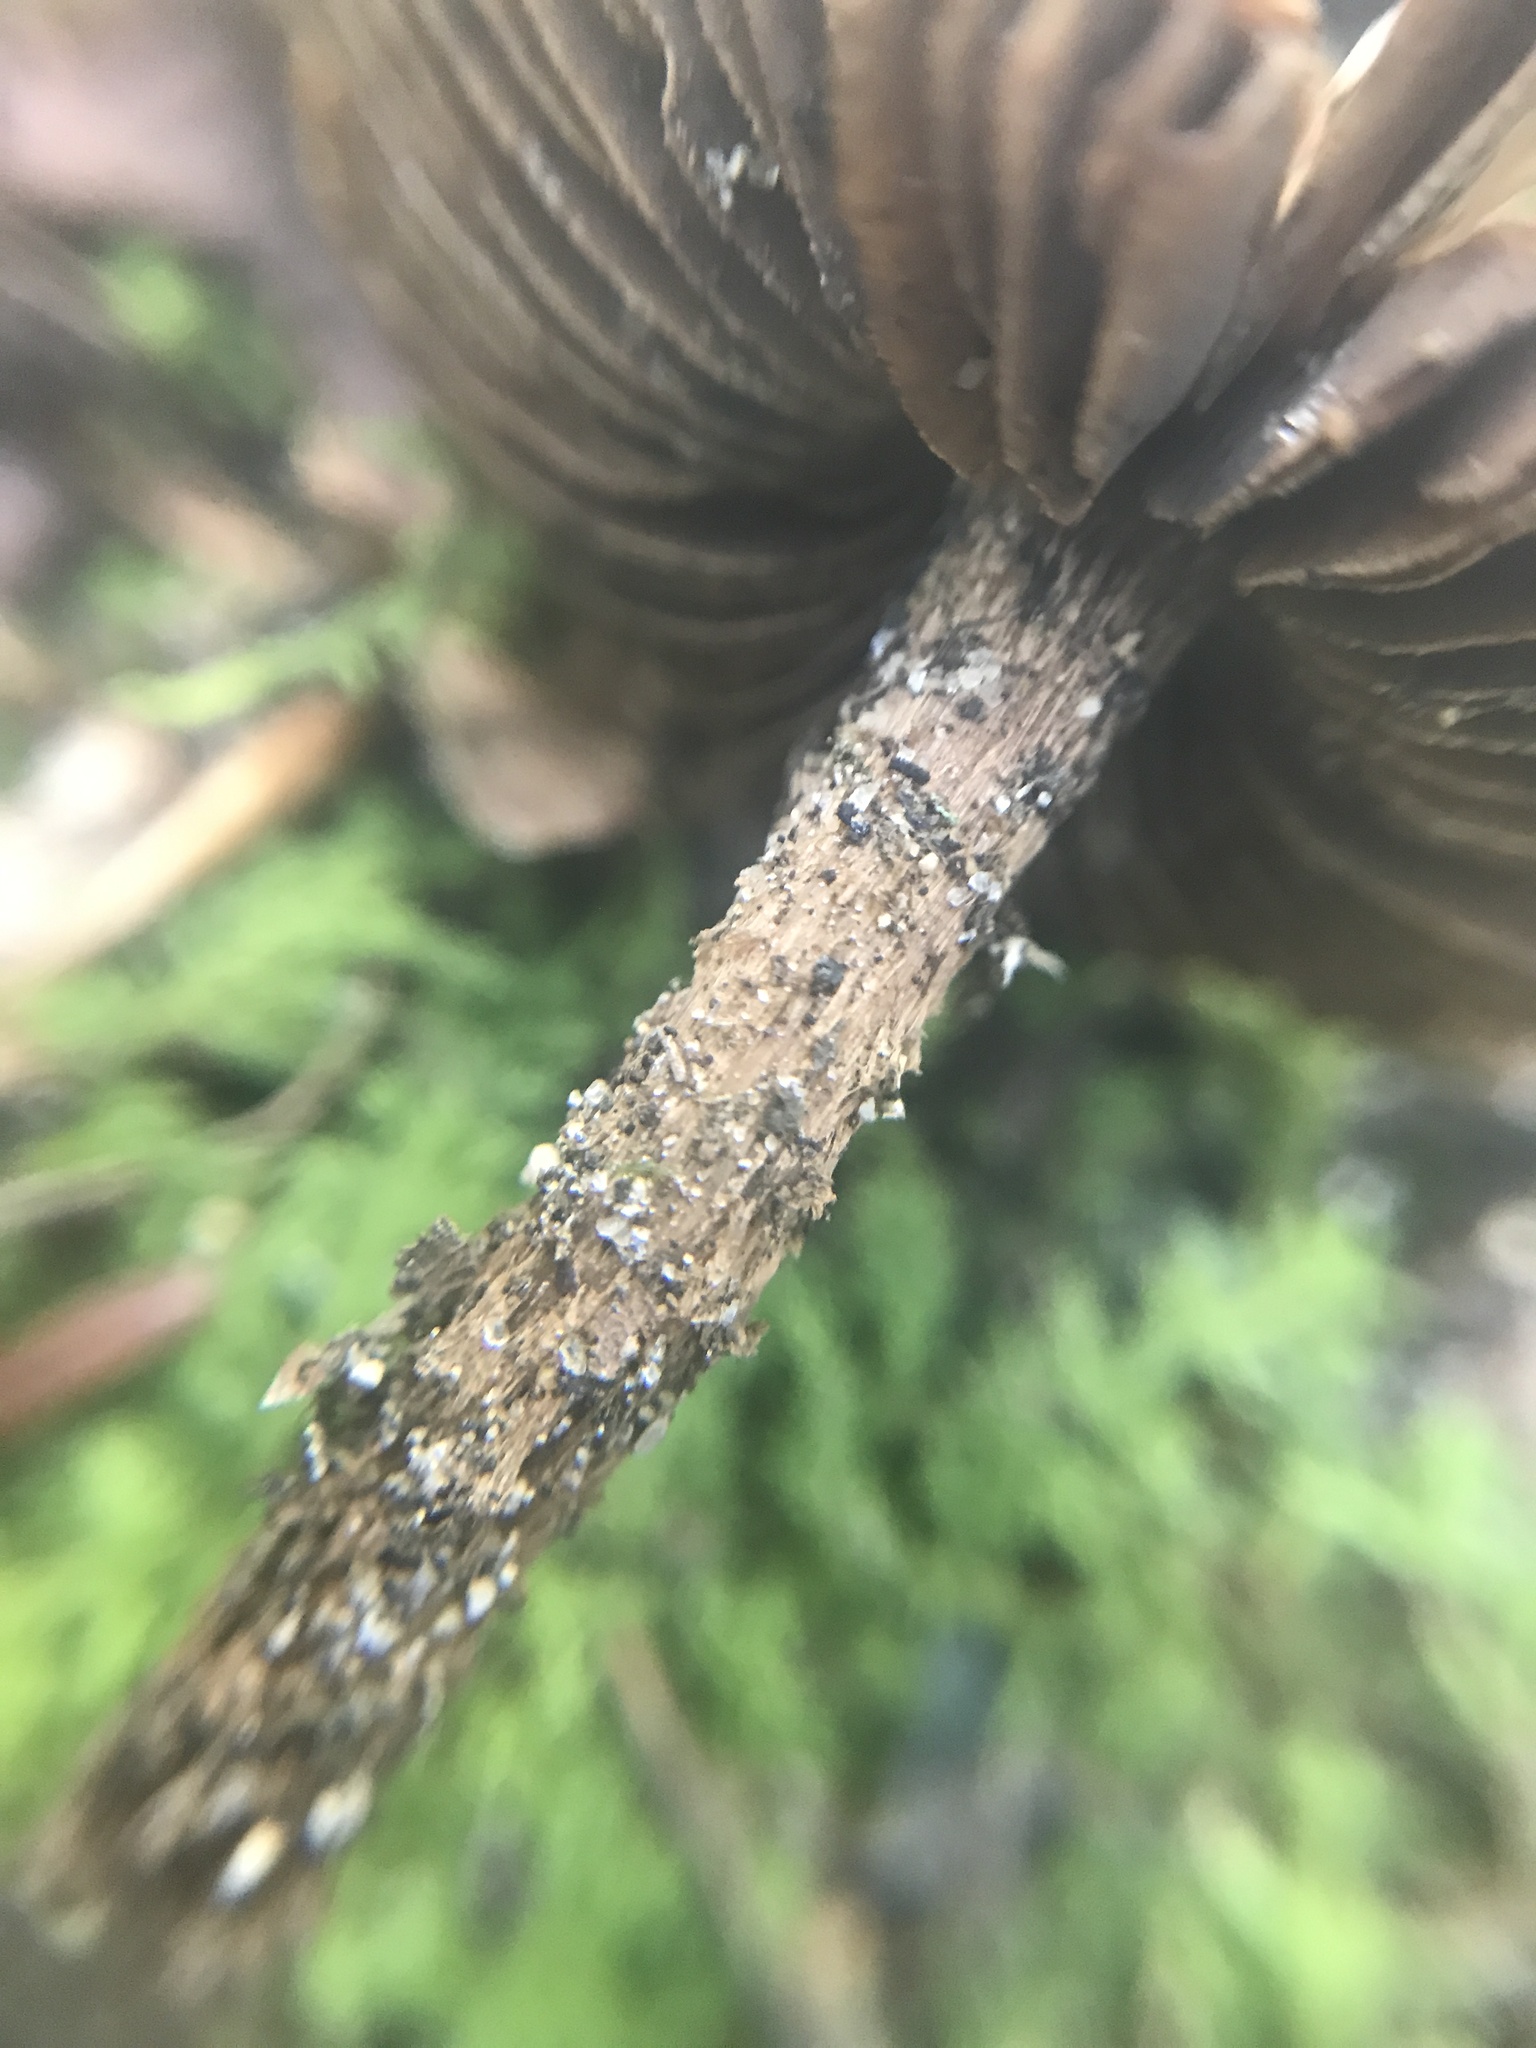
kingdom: Fungi
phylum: Basidiomycota
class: Agaricomycetes
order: Agaricales
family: Inocybaceae
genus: Inosperma
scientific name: Inosperma calamistratum
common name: Greenfoot fibrecap
